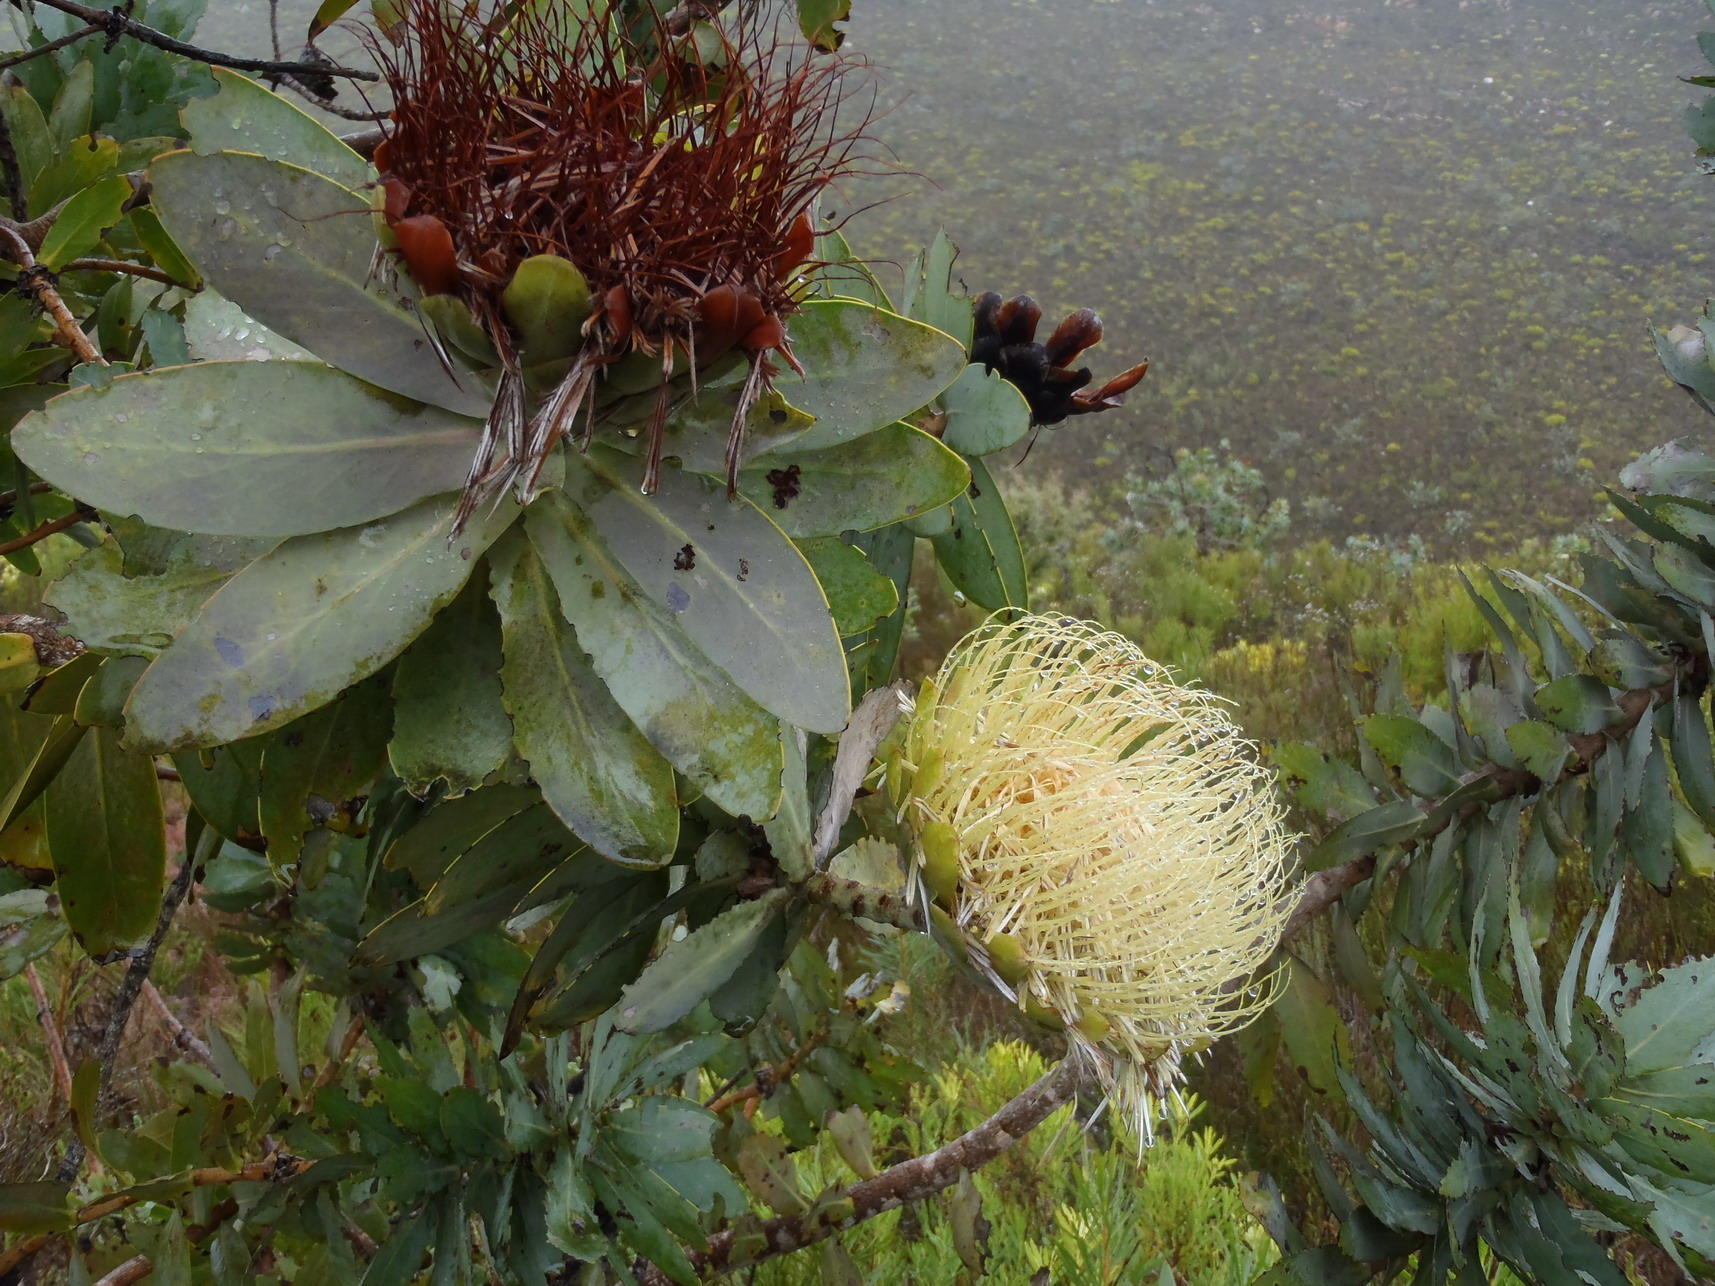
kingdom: Plantae
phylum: Tracheophyta
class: Magnoliopsida
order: Proteales
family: Proteaceae
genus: Protea
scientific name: Protea nitida
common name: Tree protea
